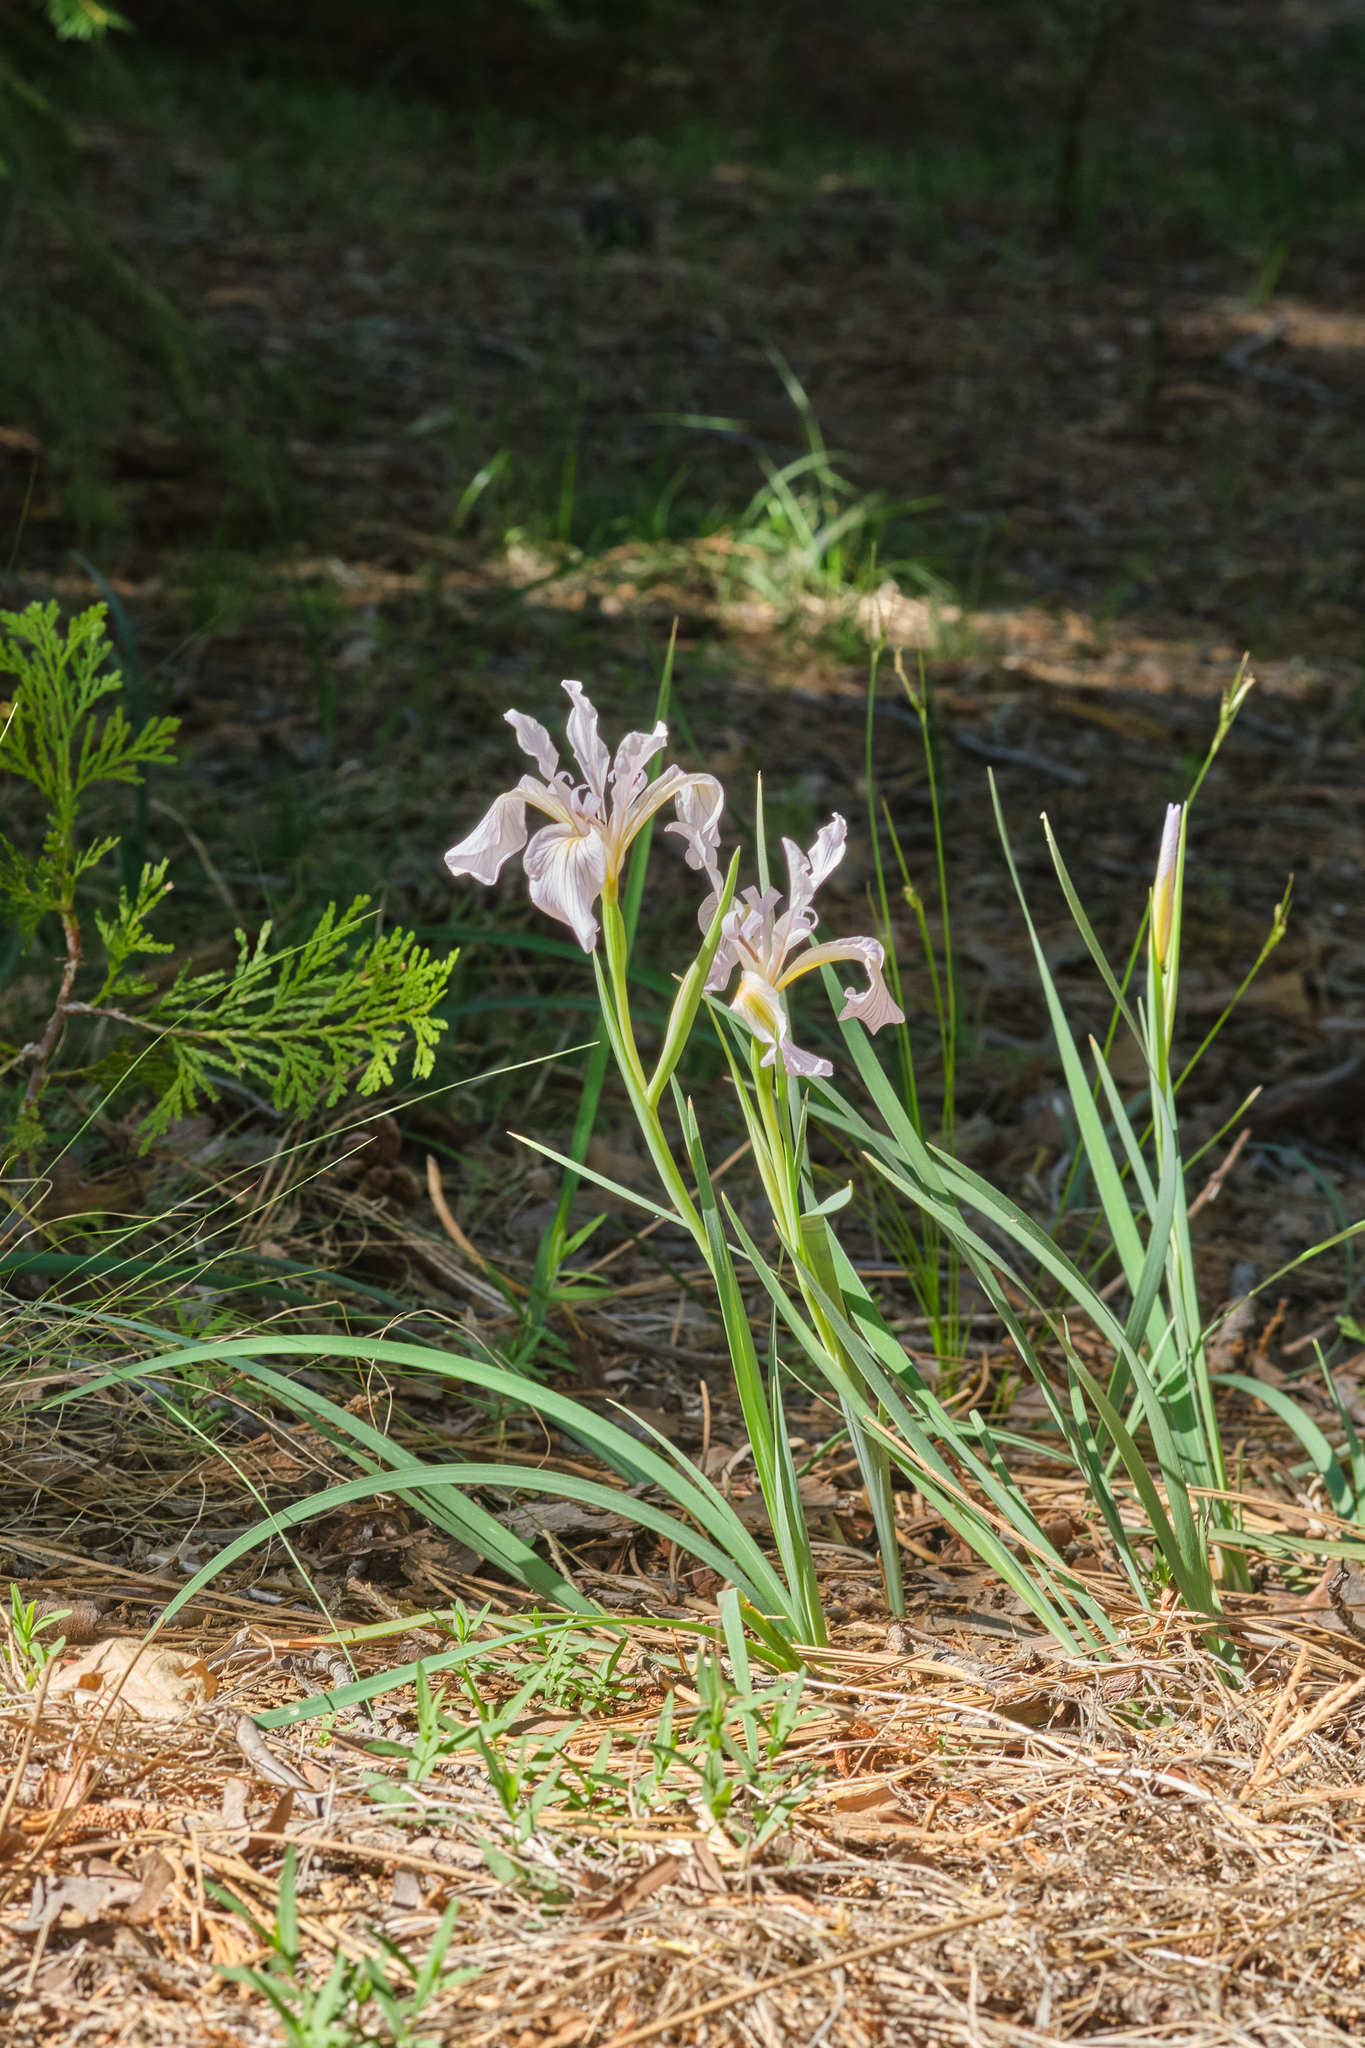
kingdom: Plantae
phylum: Tracheophyta
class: Liliopsida
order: Asparagales
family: Iridaceae
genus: Iris
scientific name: Iris hartwegii
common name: Sierra iris
